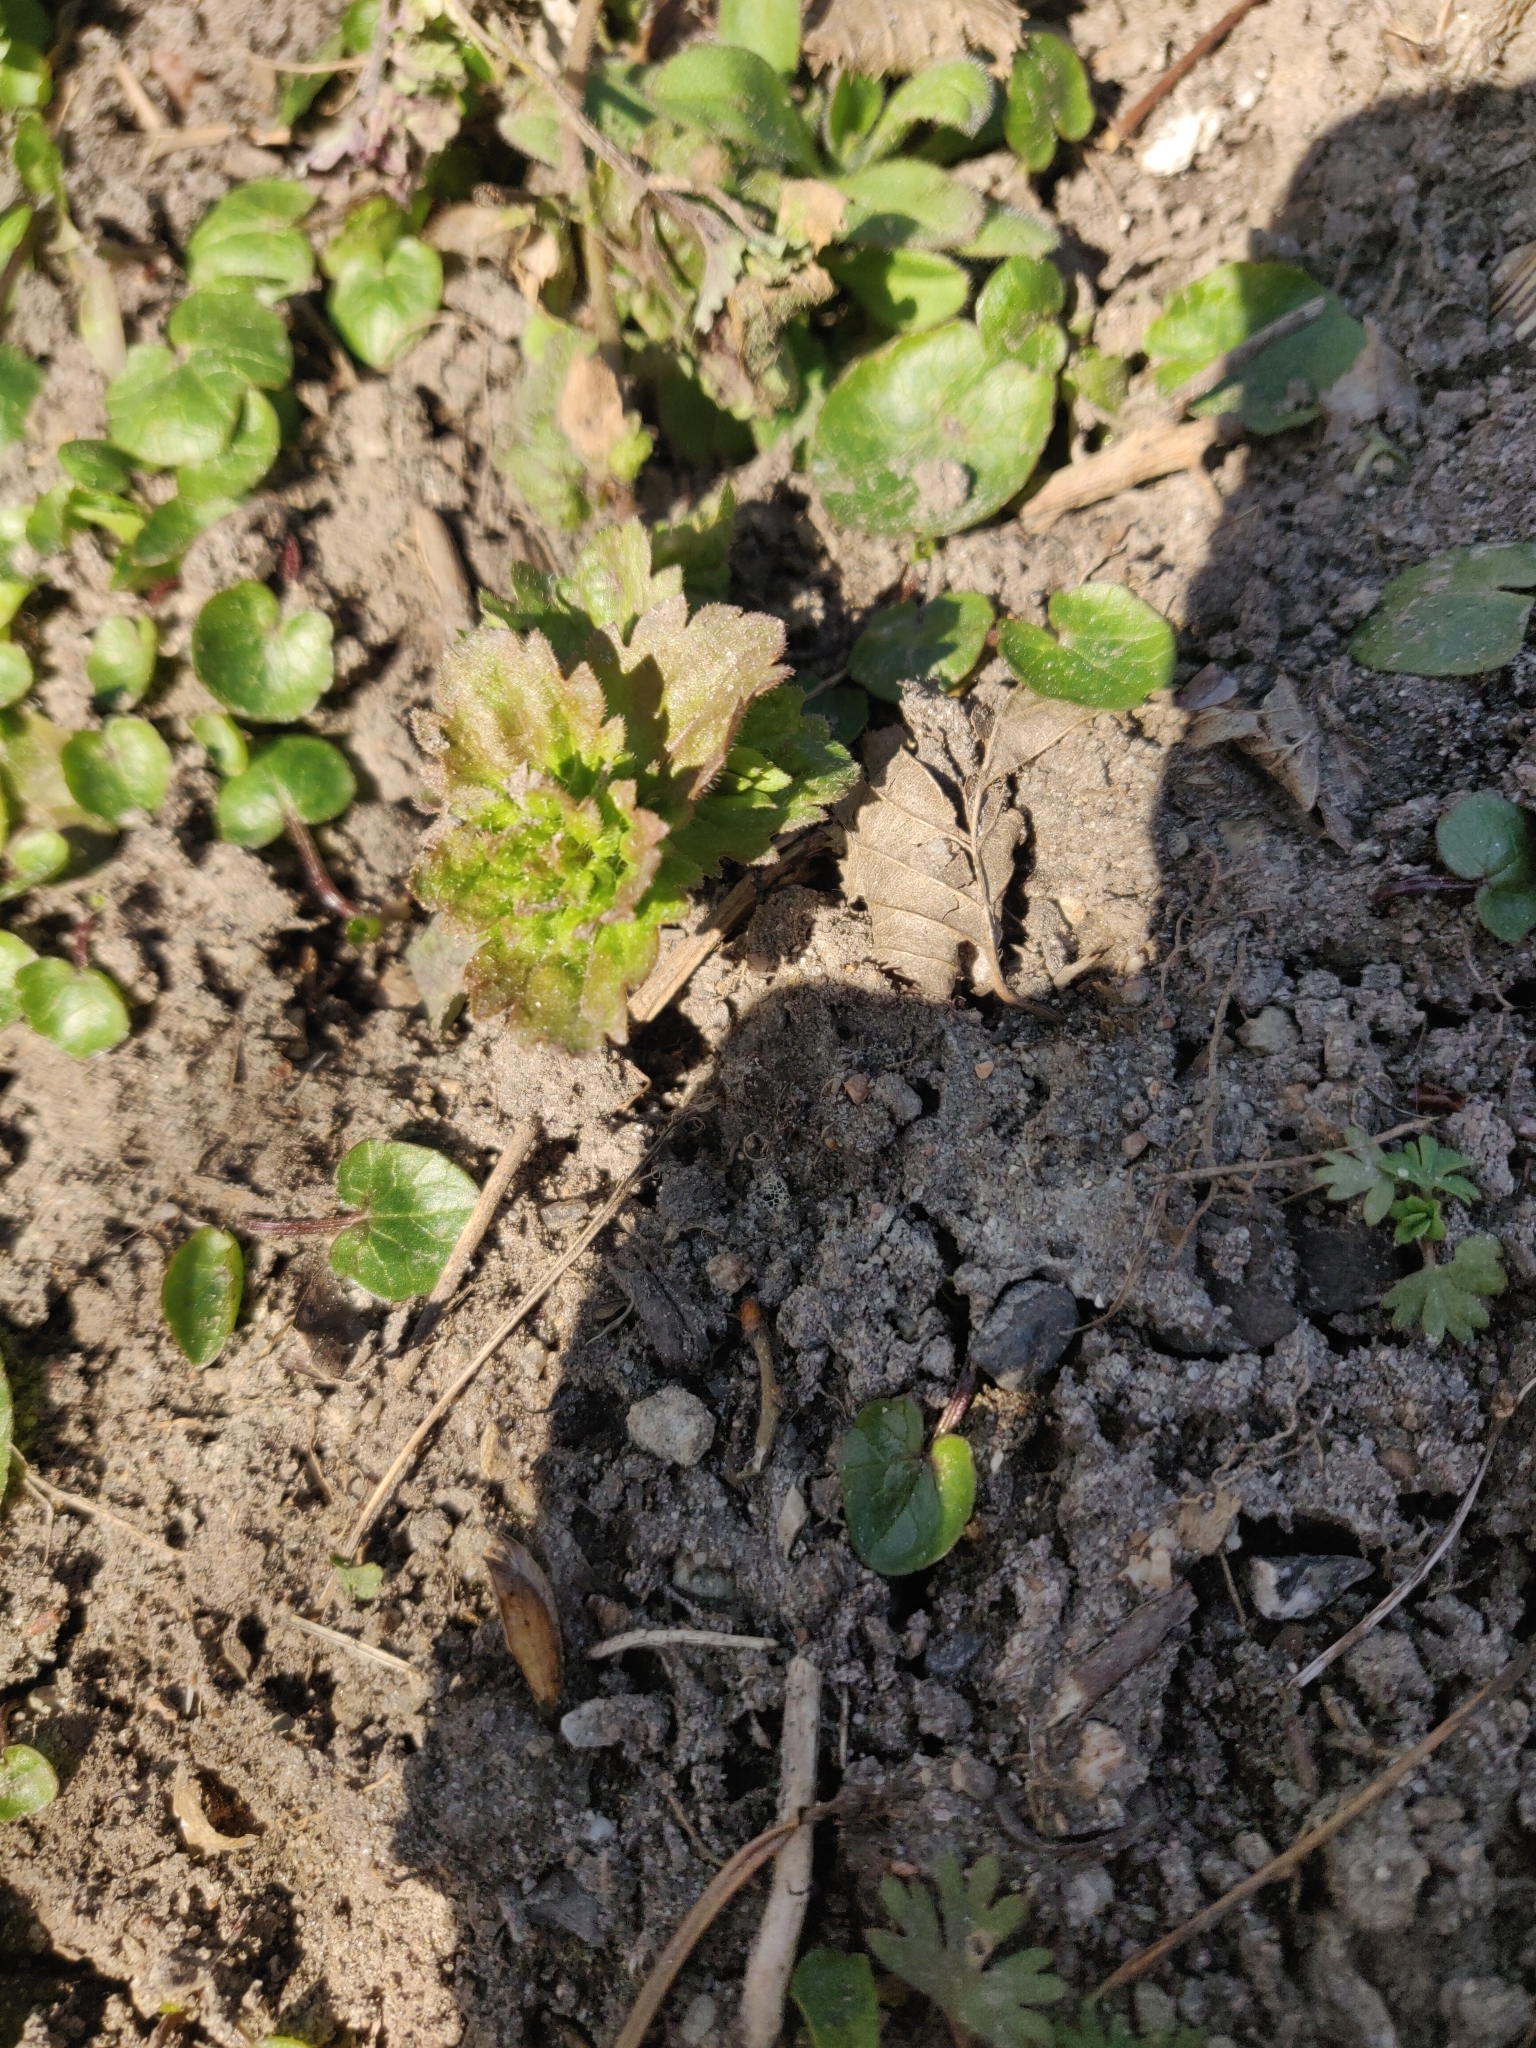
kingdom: Plantae
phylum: Tracheophyta
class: Magnoliopsida
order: Lamiales
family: Plantaginaceae
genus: Veronica
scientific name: Veronica persica
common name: Common field-speedwell
